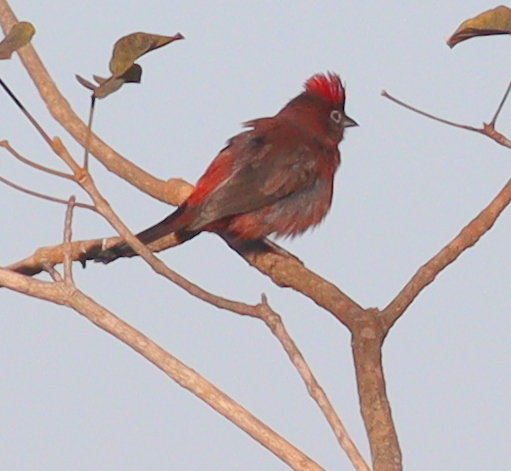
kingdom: Animalia
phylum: Chordata
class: Aves
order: Passeriformes
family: Thraupidae
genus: Coryphospingus
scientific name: Coryphospingus cucullatus
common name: Red pileated finch
